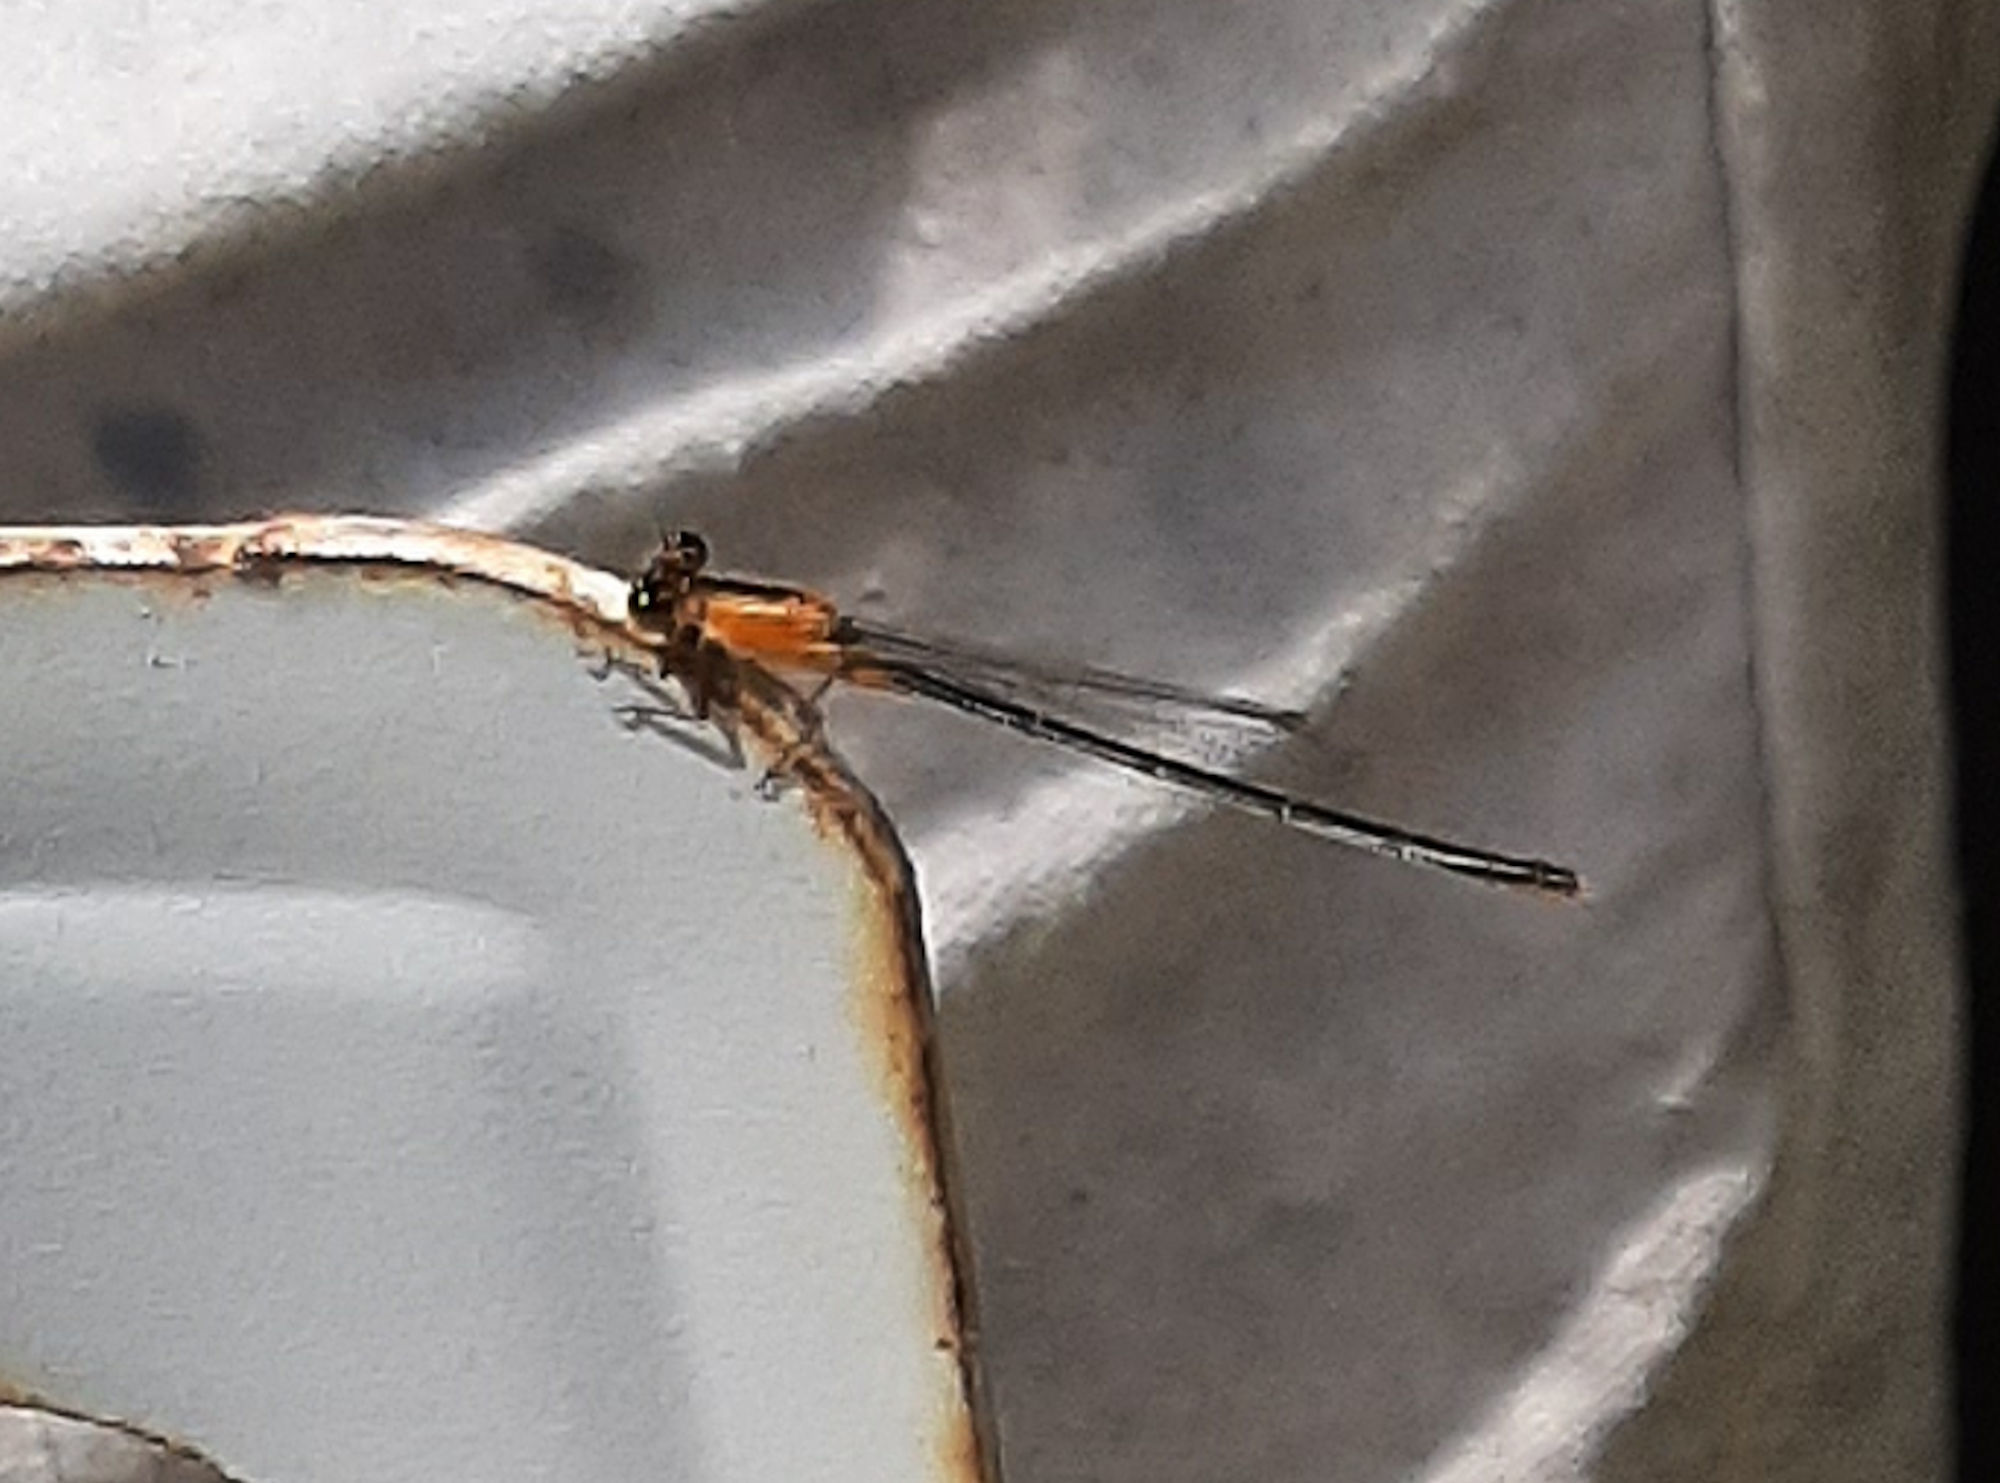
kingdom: Animalia
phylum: Arthropoda
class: Insecta
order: Odonata
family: Coenagrionidae
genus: Ischnura
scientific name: Ischnura ramburii
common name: Rambur's forktail
